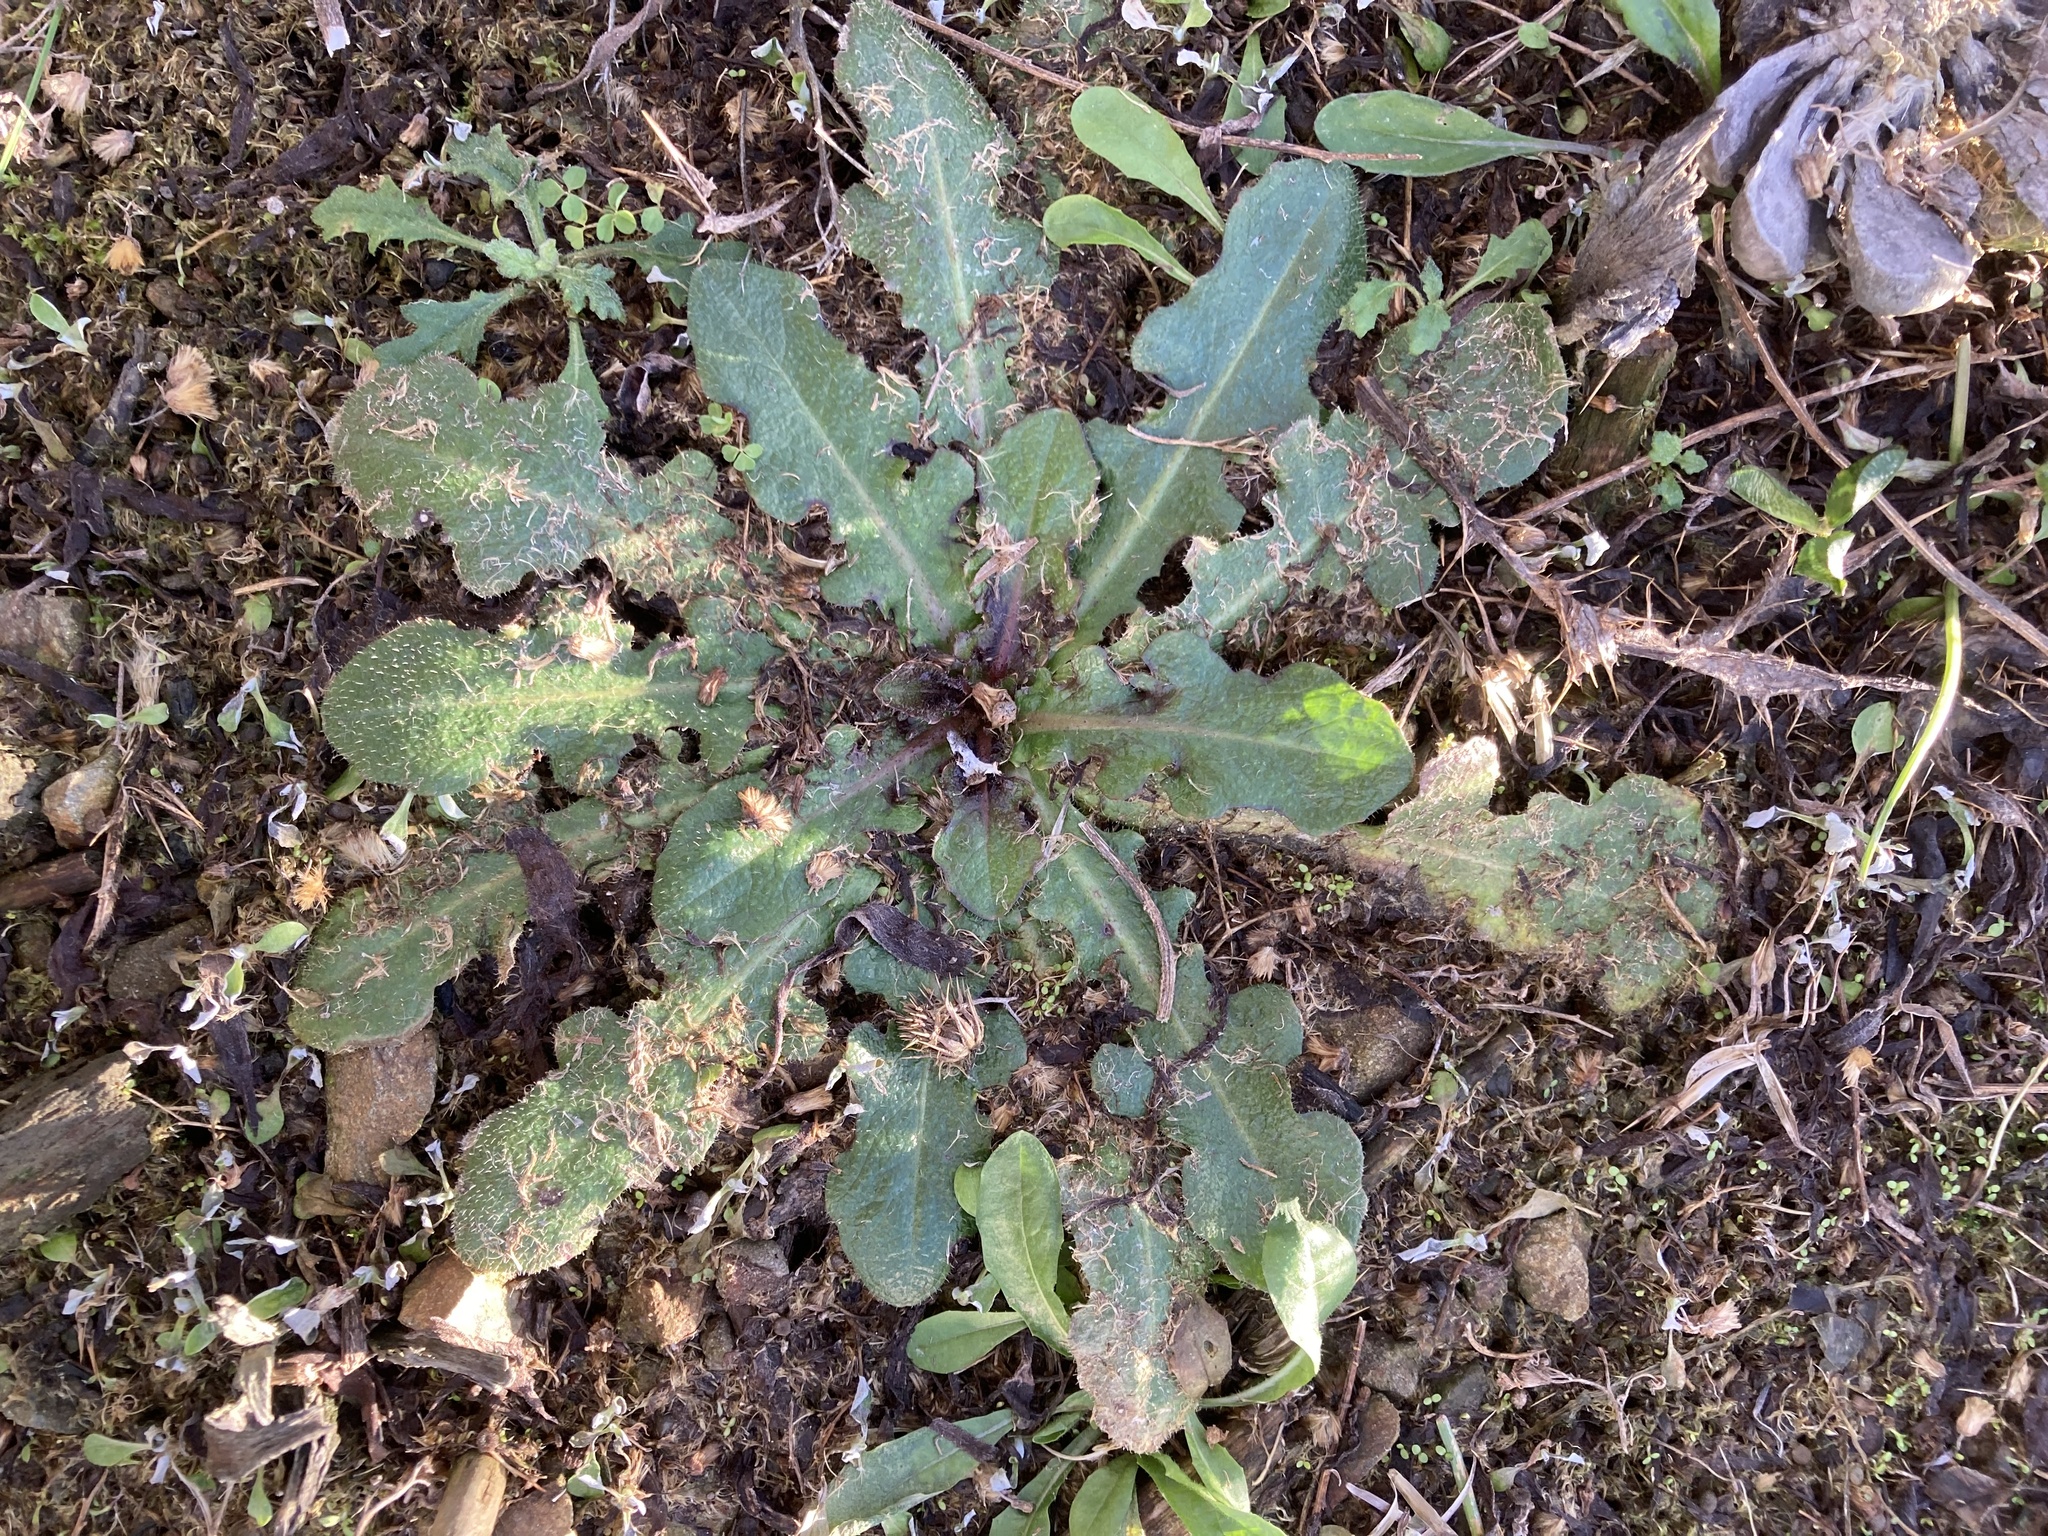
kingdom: Plantae
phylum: Tracheophyta
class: Magnoliopsida
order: Asterales
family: Asteraceae
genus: Hypochaeris
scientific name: Hypochaeris radicata
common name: Flatweed
